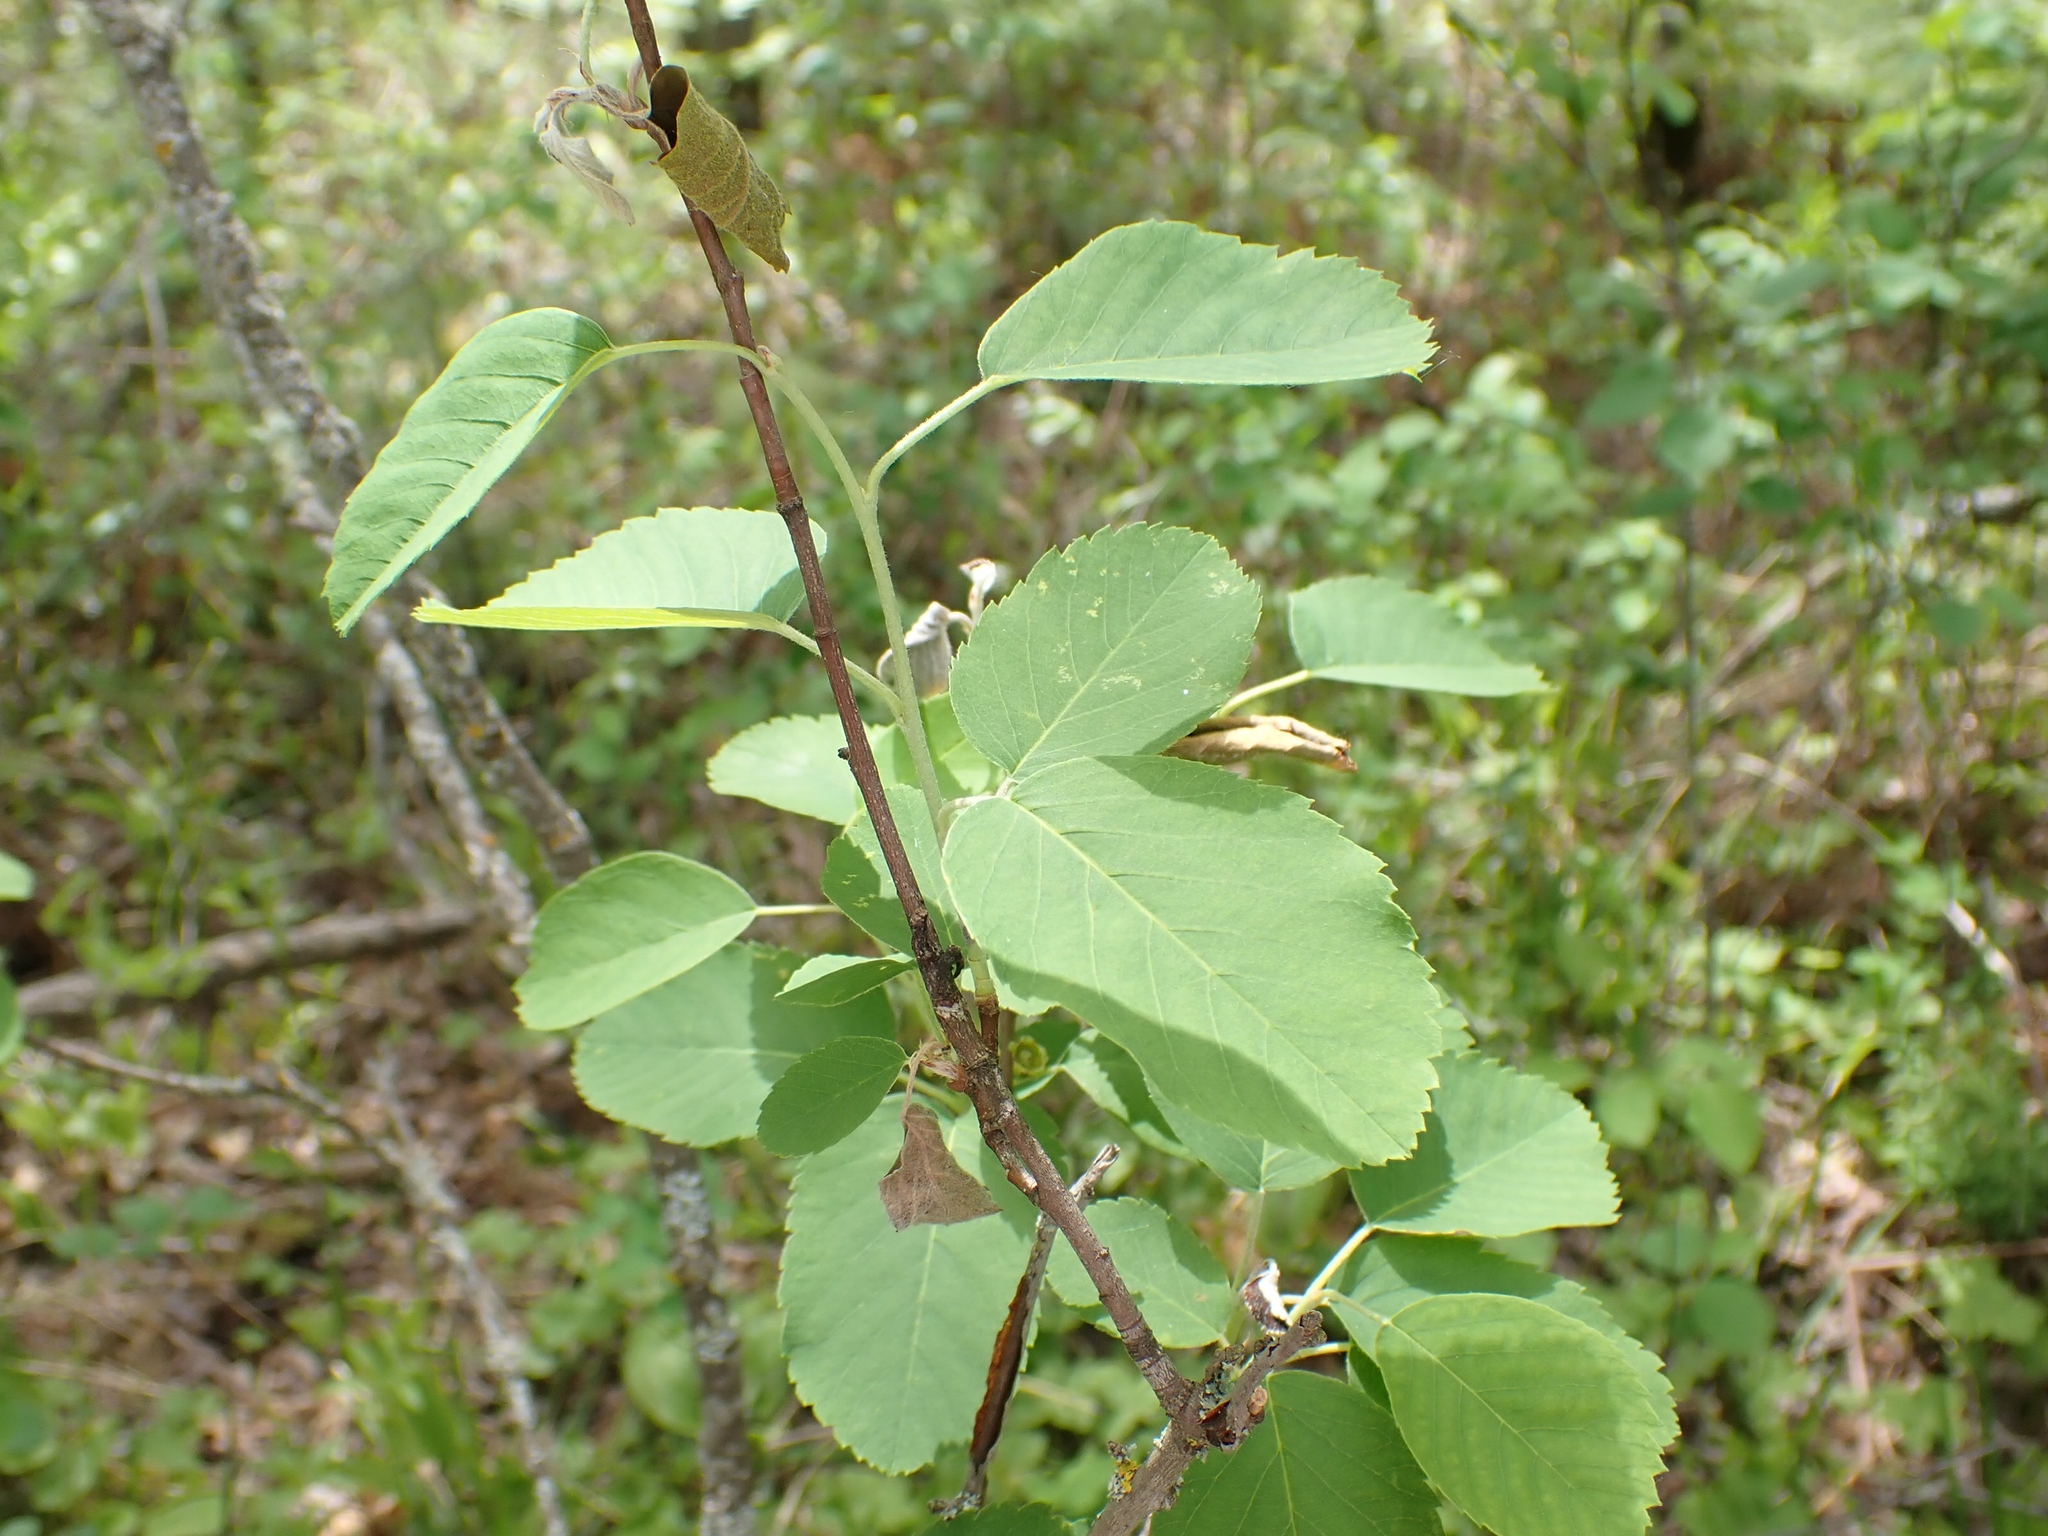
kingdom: Plantae
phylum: Tracheophyta
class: Magnoliopsida
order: Rosales
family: Rosaceae
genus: Amelanchier
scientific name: Amelanchier alnifolia
